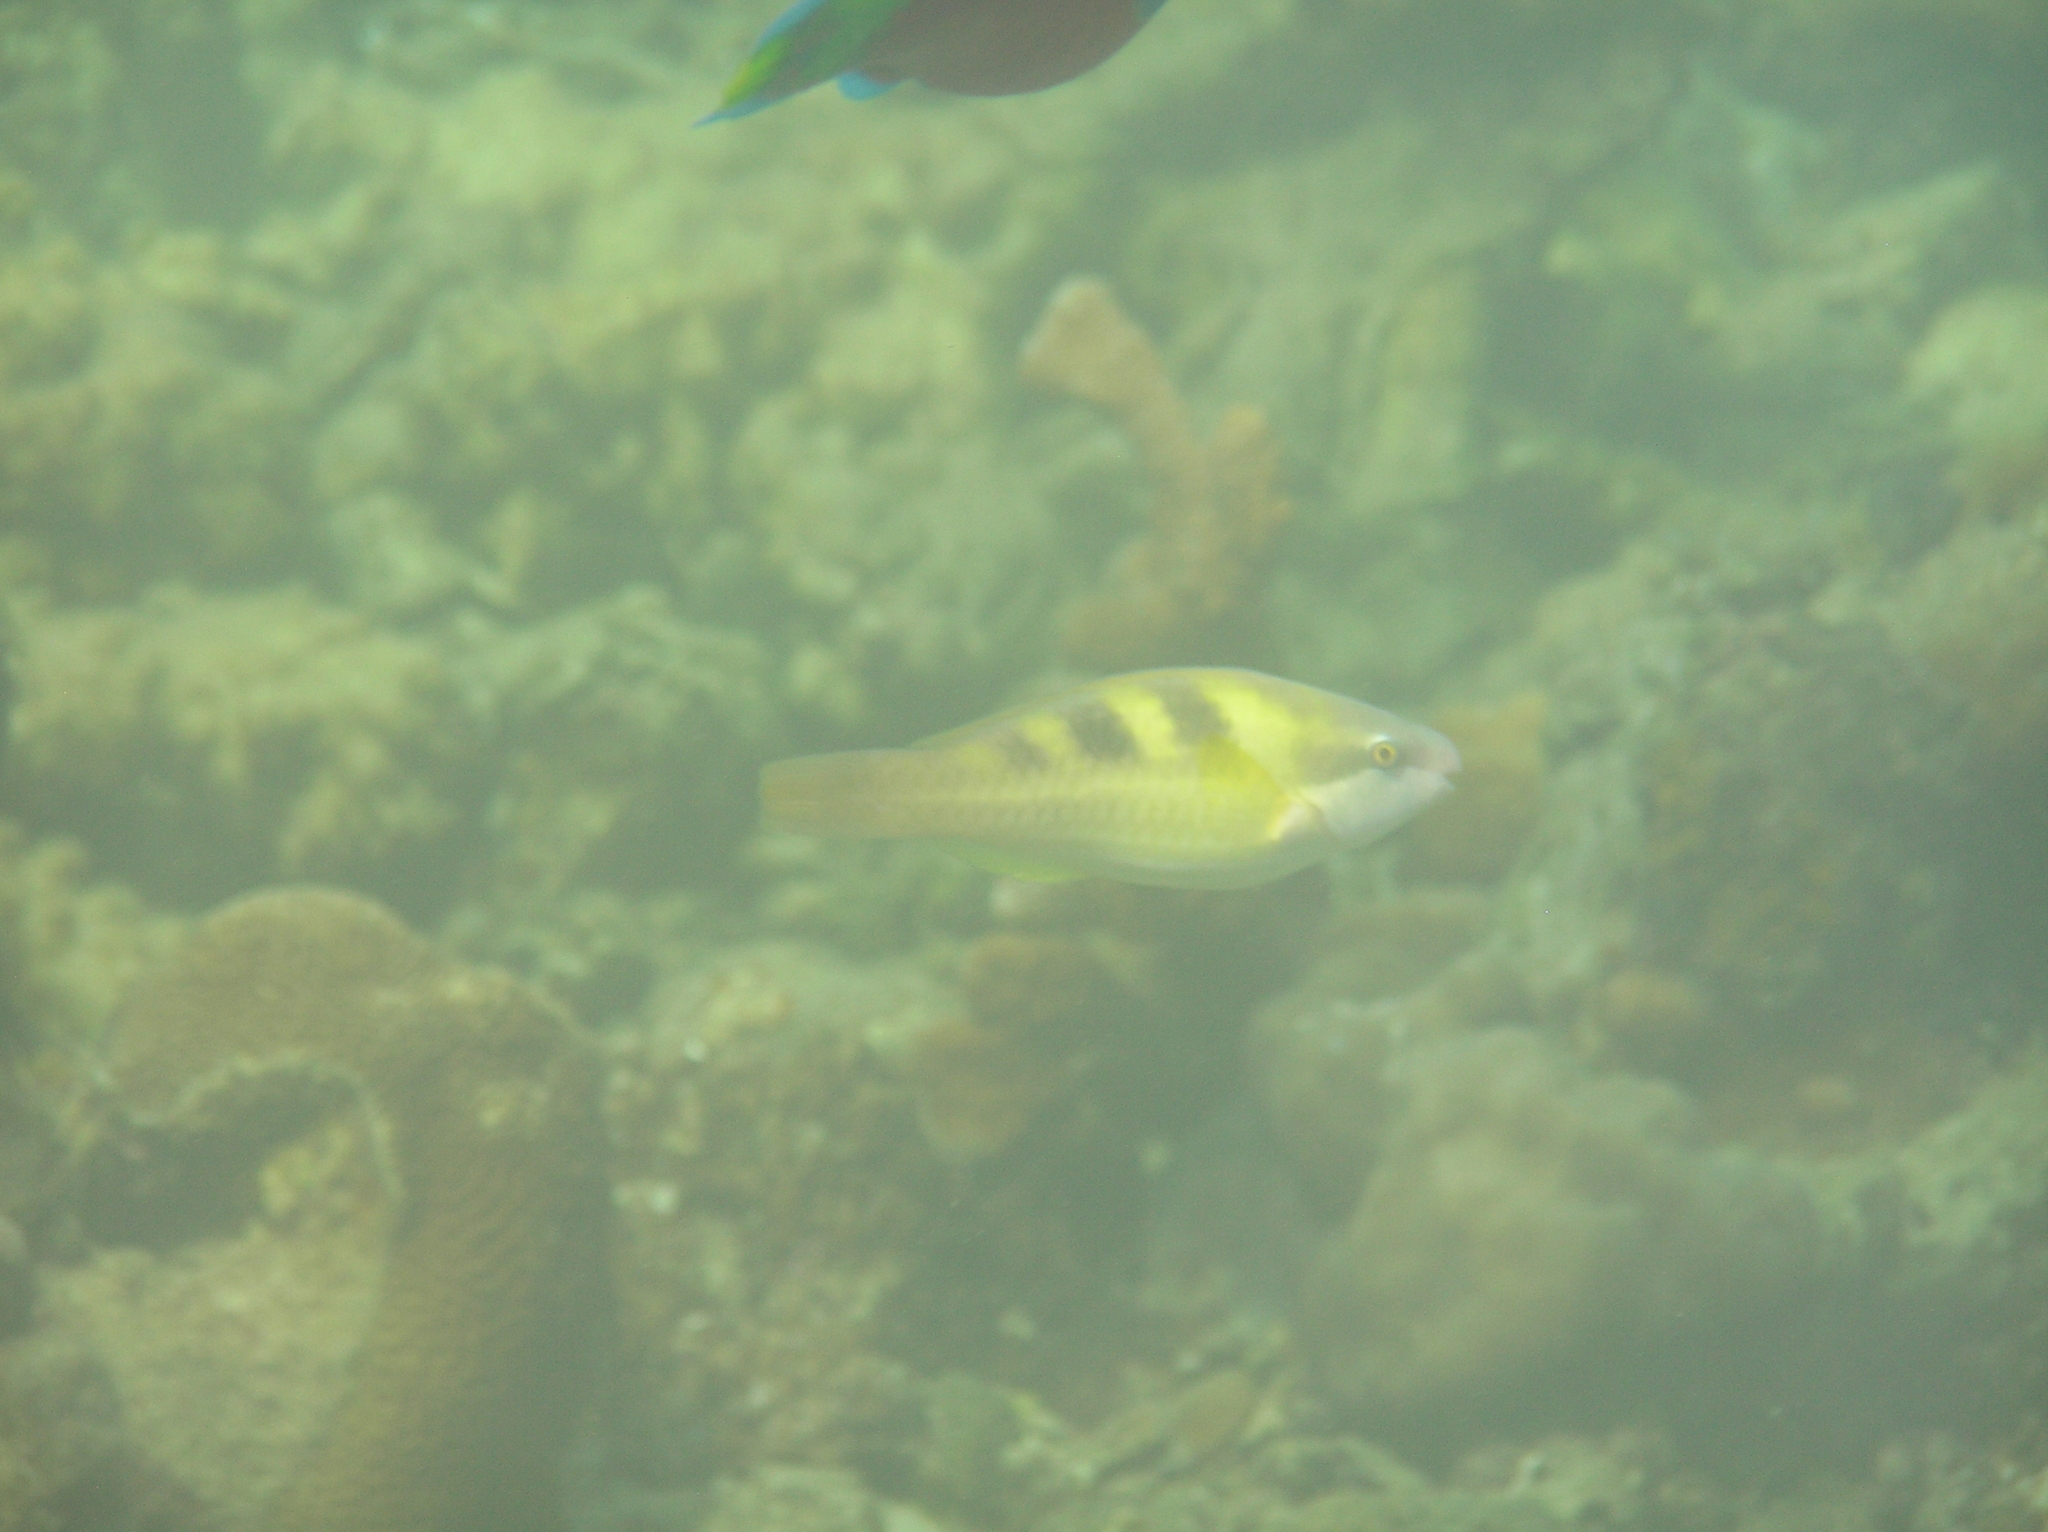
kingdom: Animalia
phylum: Chordata
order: Perciformes
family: Scaridae
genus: Scarus
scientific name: Scarus dimidiatus
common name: Yellowbarred parrotfish
